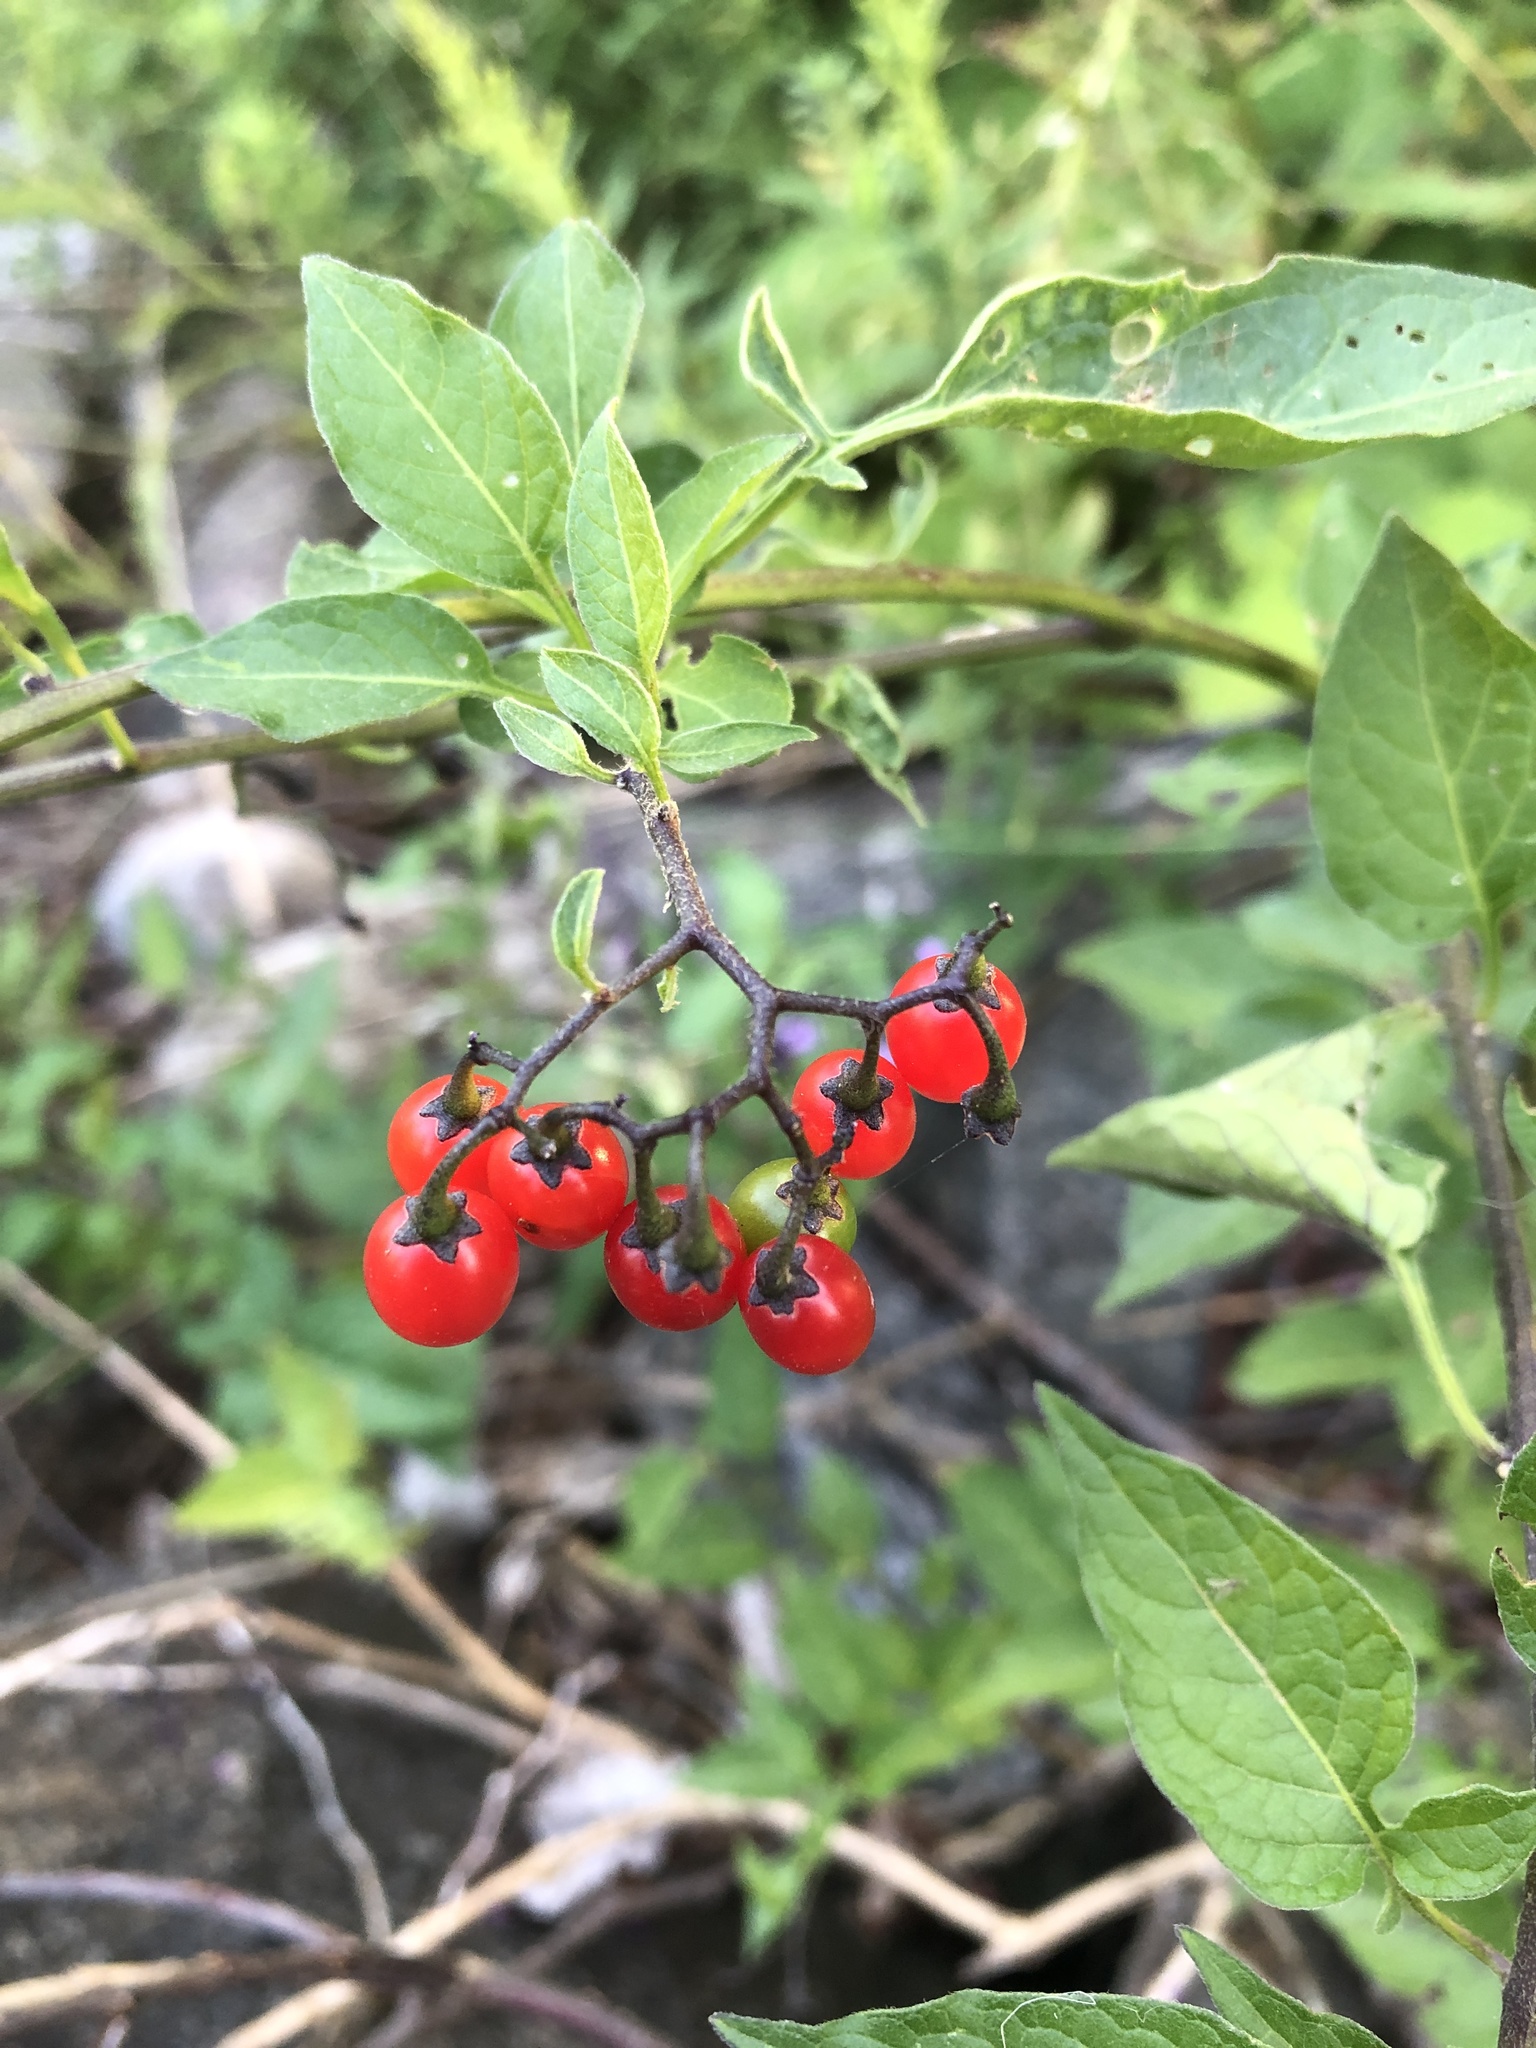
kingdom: Plantae
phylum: Tracheophyta
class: Magnoliopsida
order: Solanales
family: Solanaceae
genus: Solanum
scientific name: Solanum dulcamara
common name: Climbing nightshade
